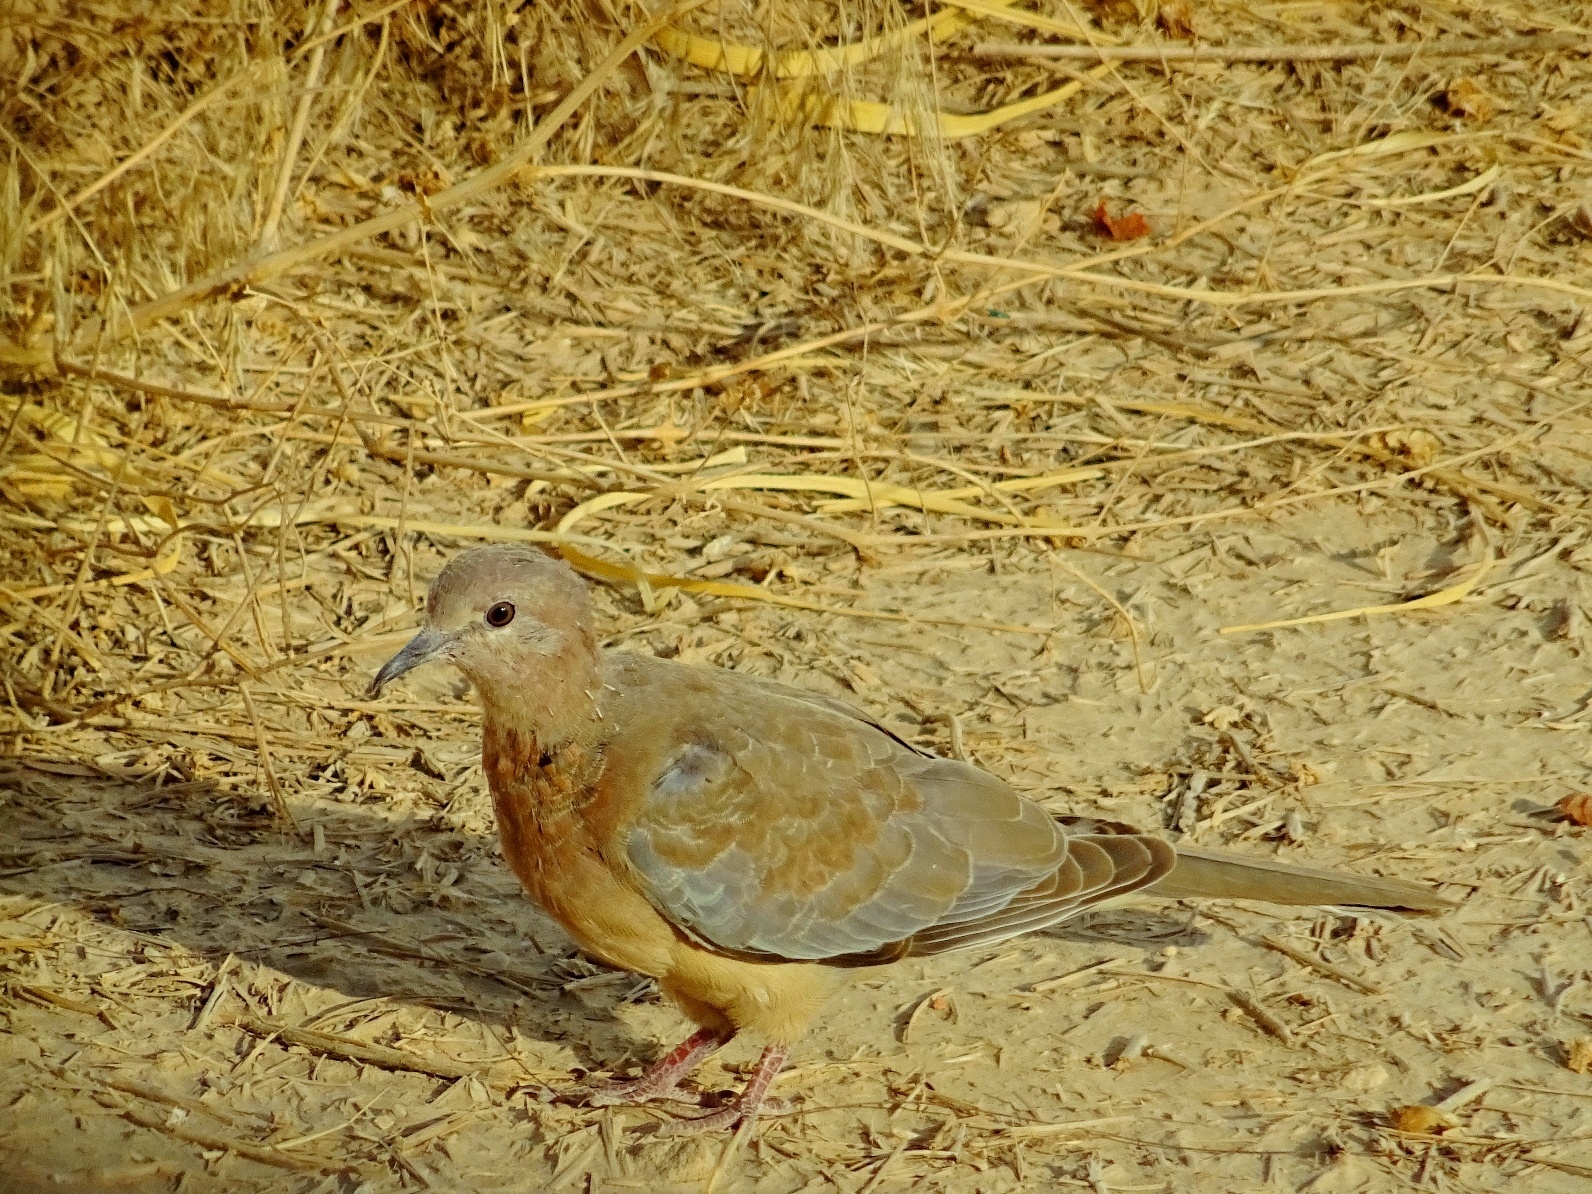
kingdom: Animalia
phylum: Chordata
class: Aves
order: Columbiformes
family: Columbidae
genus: Spilopelia
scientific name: Spilopelia senegalensis
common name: Laughing dove
